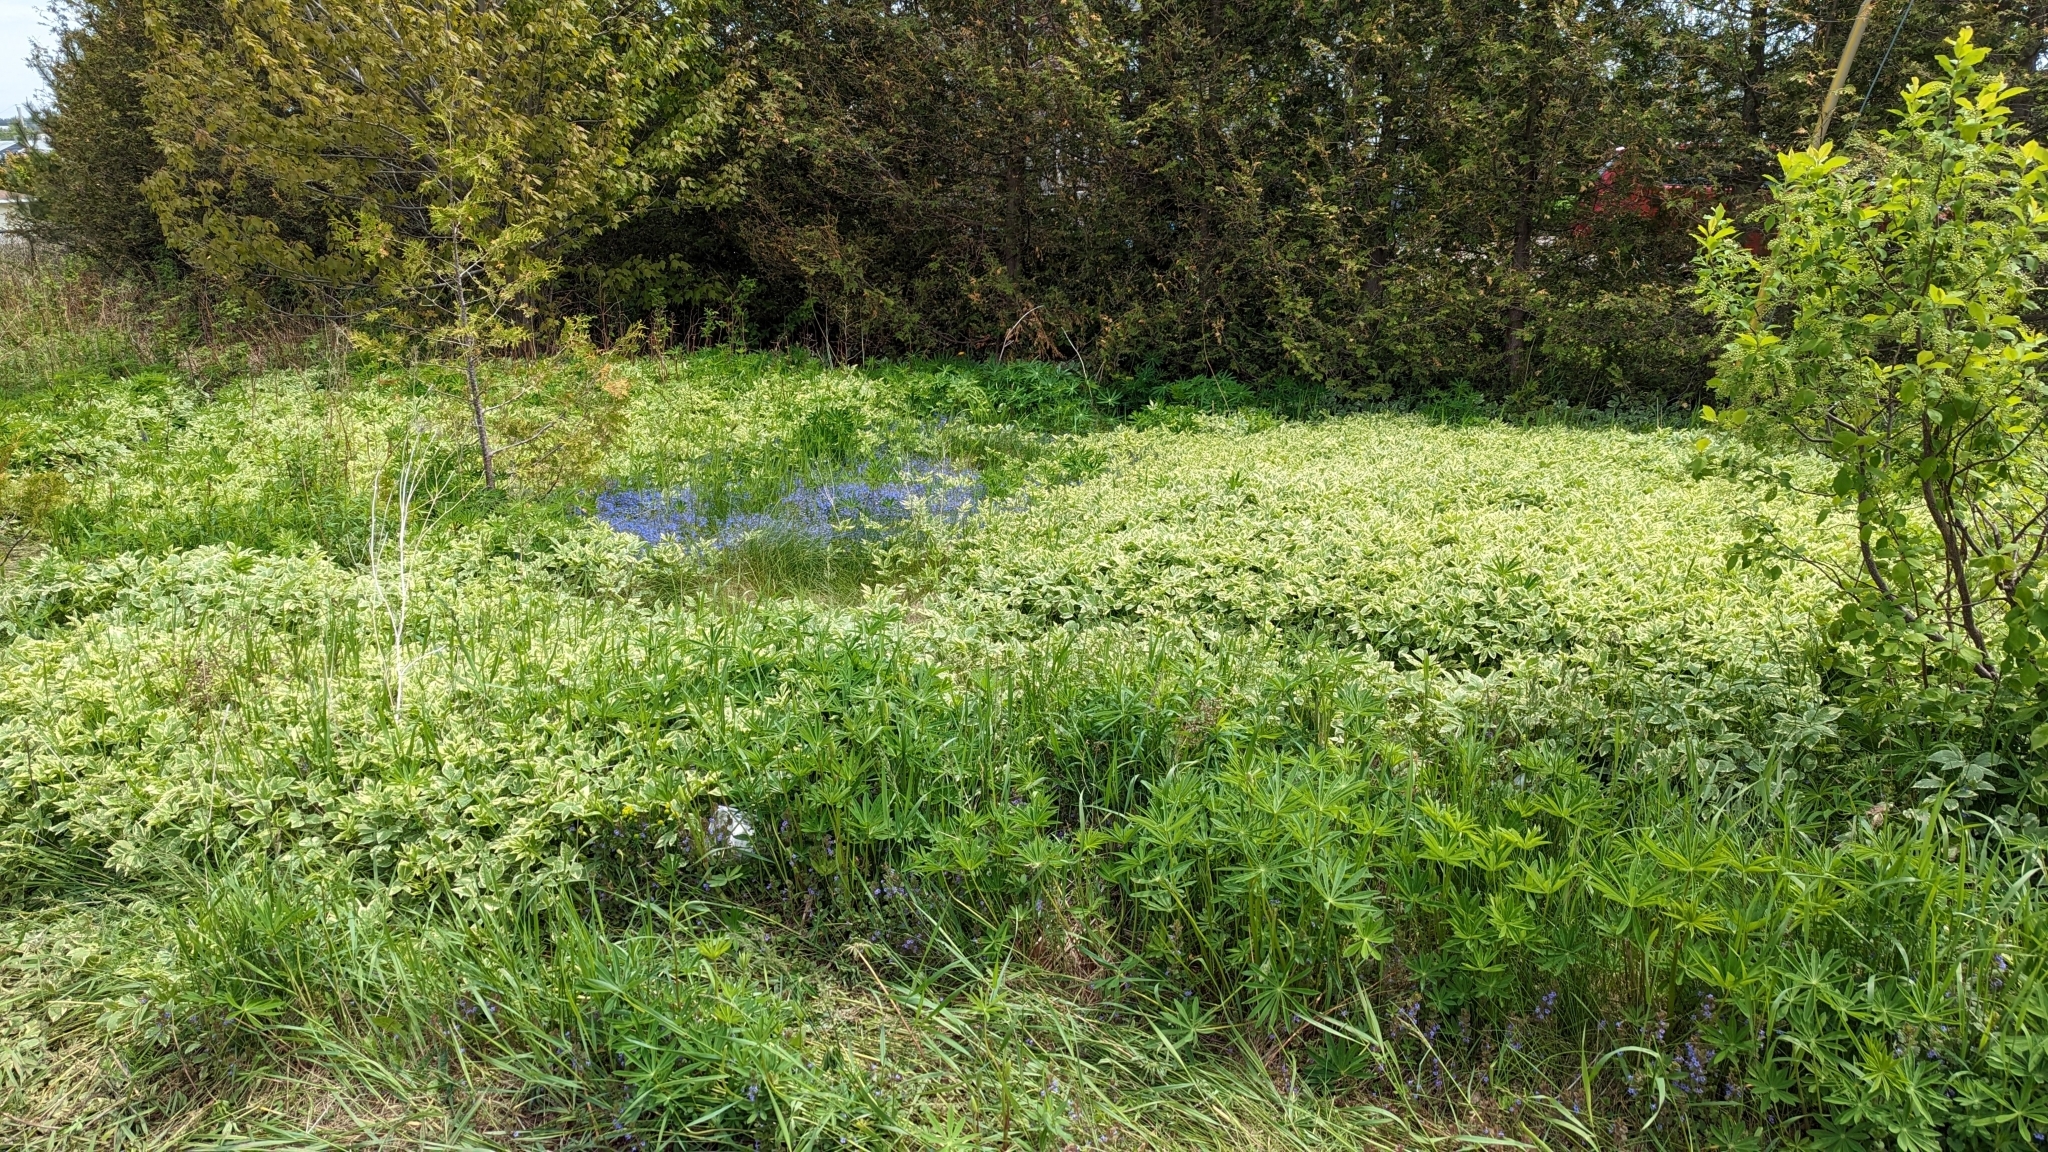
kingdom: Plantae
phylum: Tracheophyta
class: Magnoliopsida
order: Apiales
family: Apiaceae
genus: Aegopodium
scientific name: Aegopodium podagraria
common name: Ground-elder
